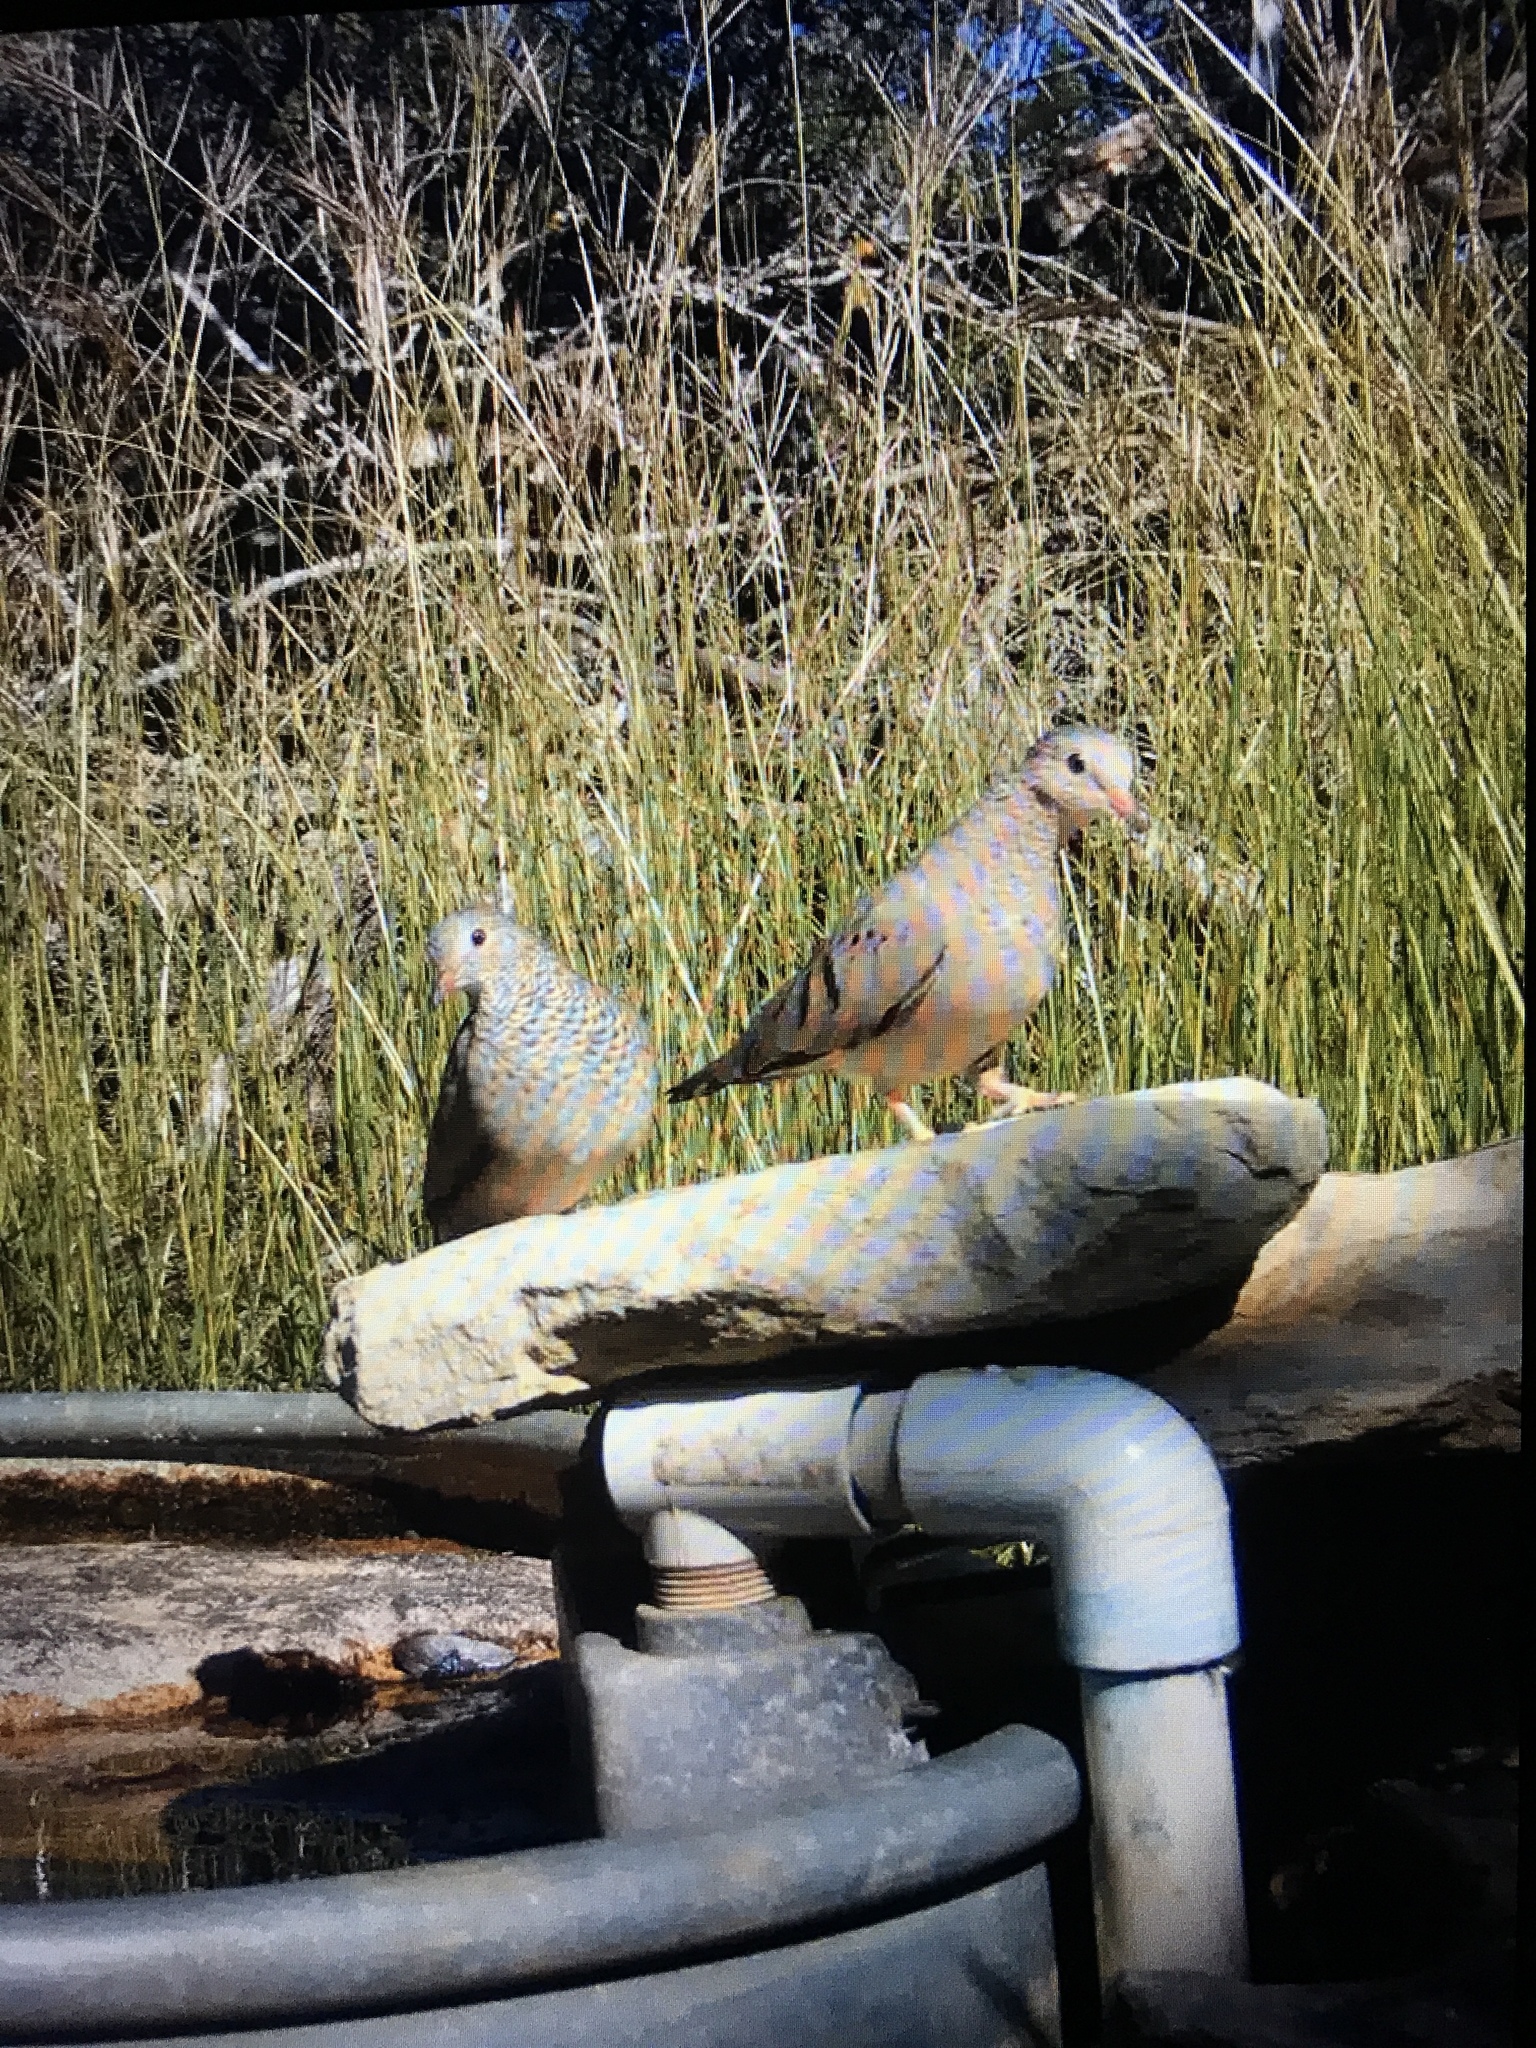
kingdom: Animalia
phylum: Chordata
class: Aves
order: Columbiformes
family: Columbidae
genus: Columbina
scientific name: Columbina passerina
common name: Common ground-dove
